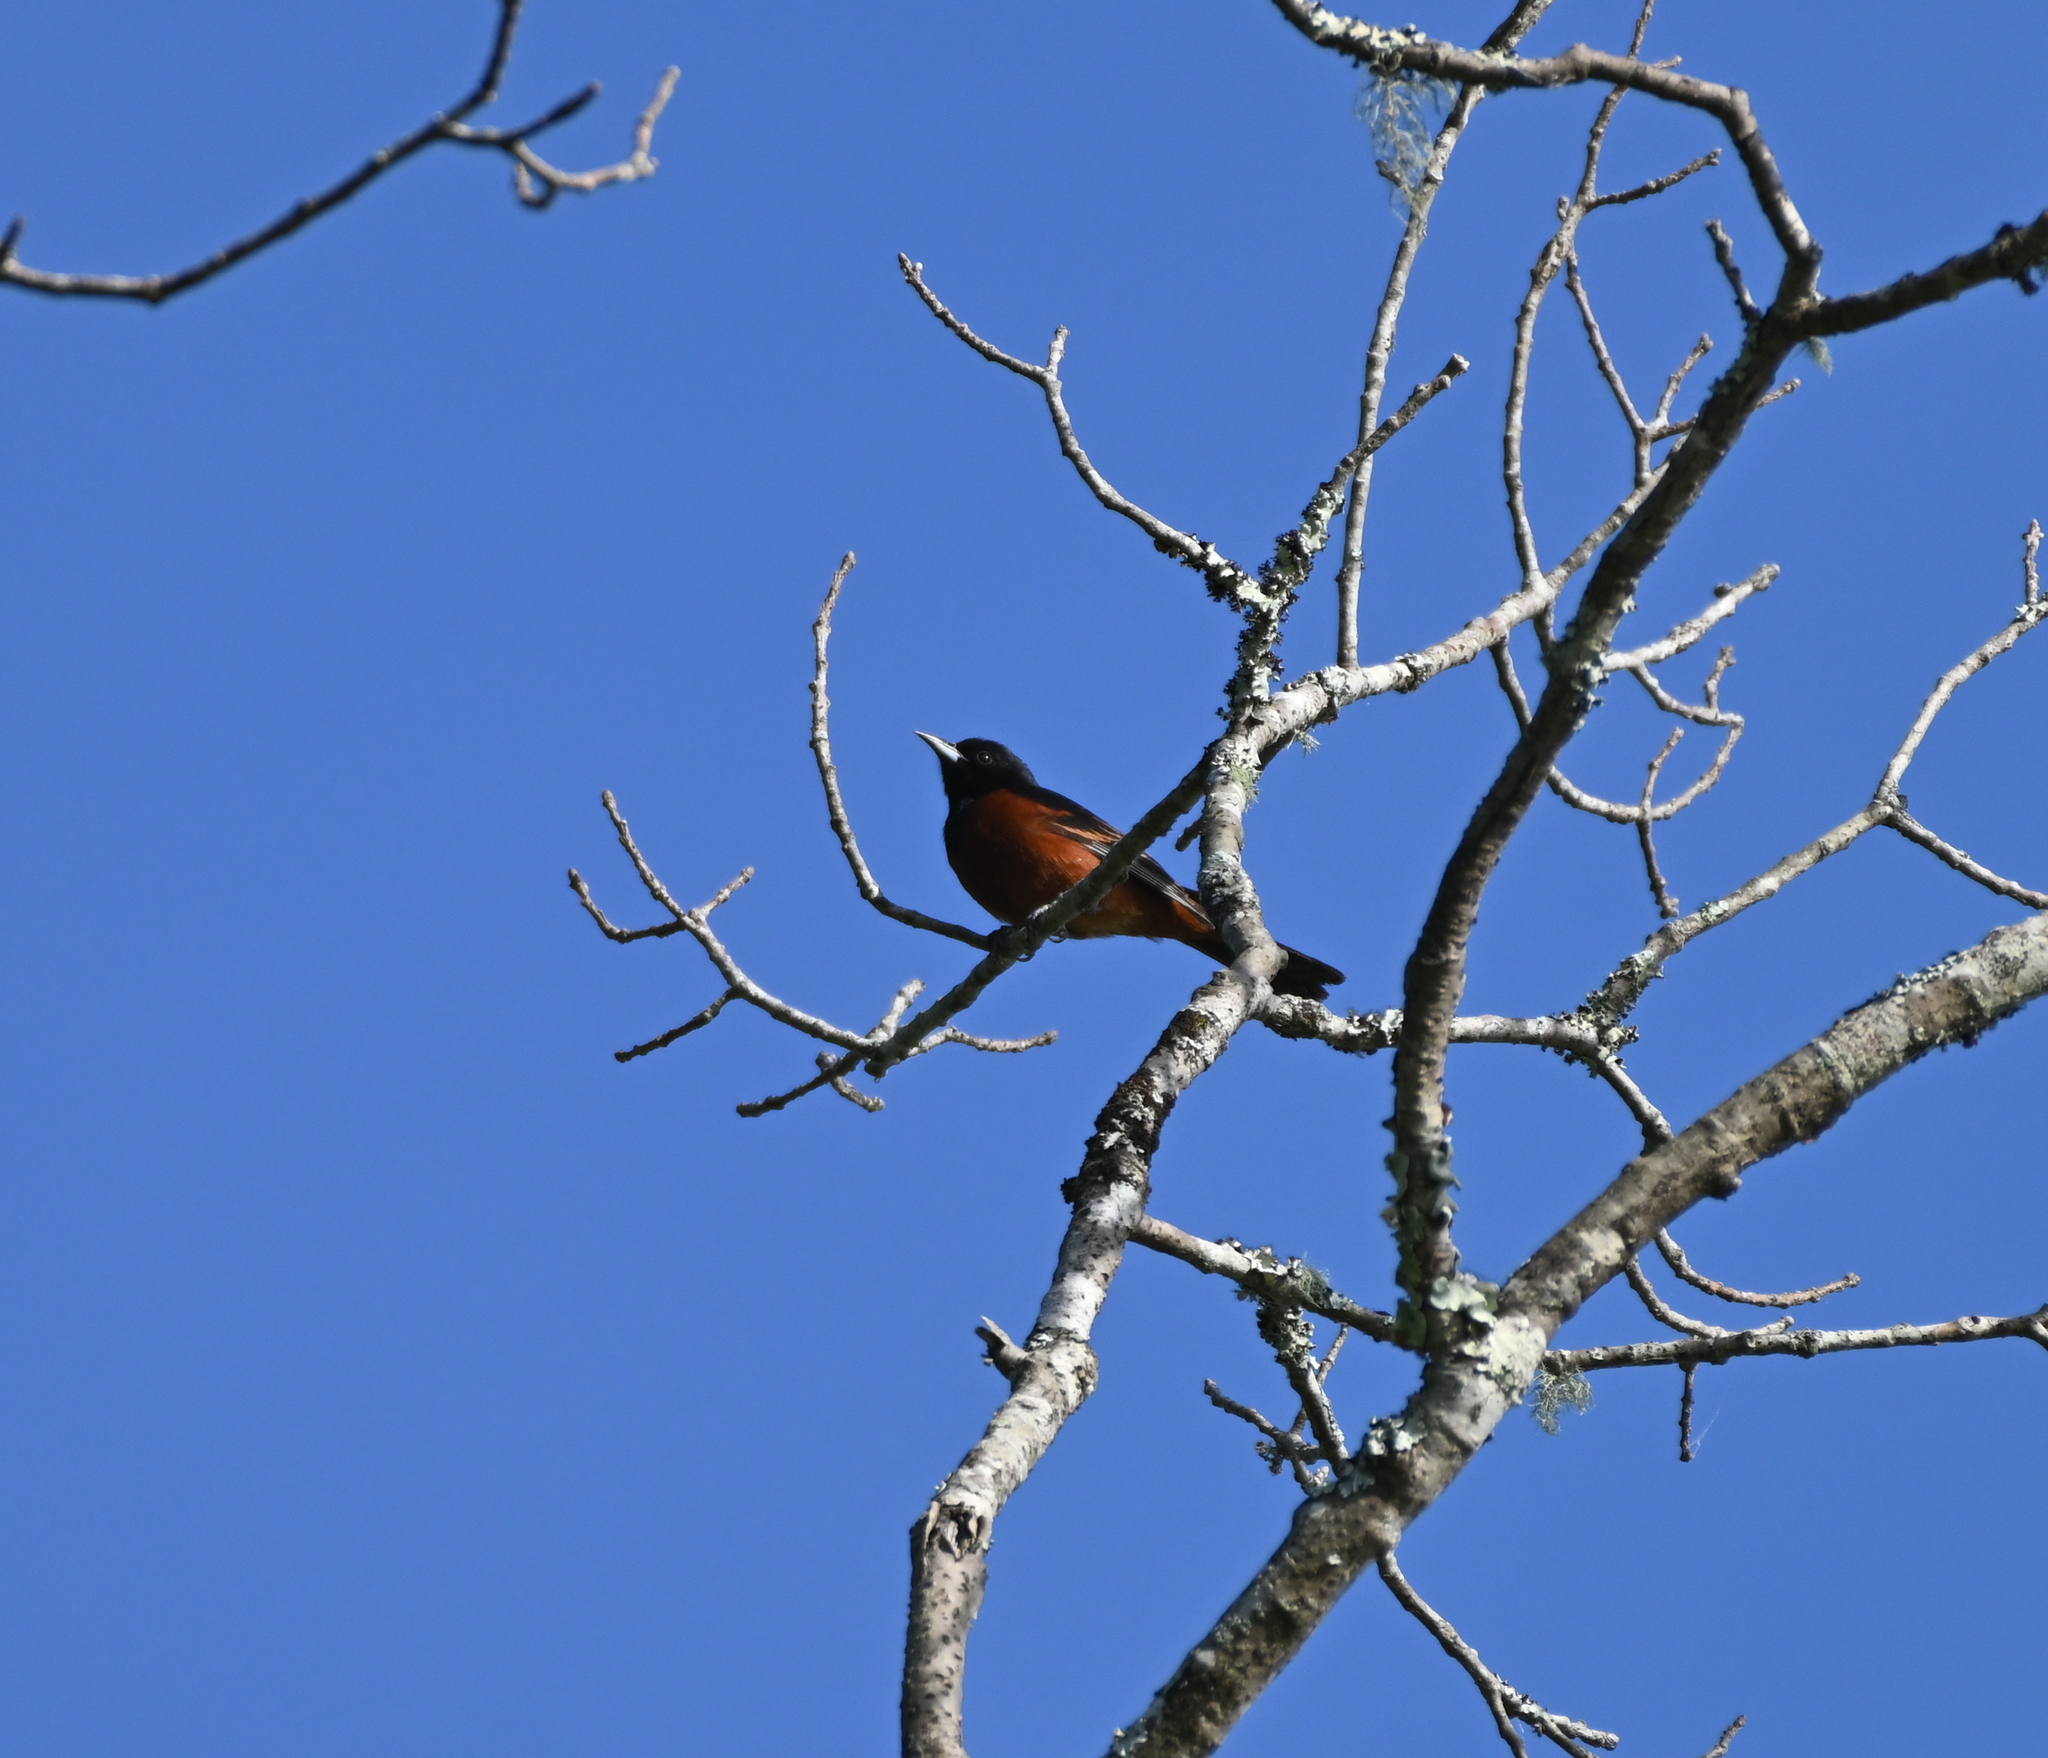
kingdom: Animalia
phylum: Chordata
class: Aves
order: Passeriformes
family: Icteridae
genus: Icterus
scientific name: Icterus spurius
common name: Orchard oriole
